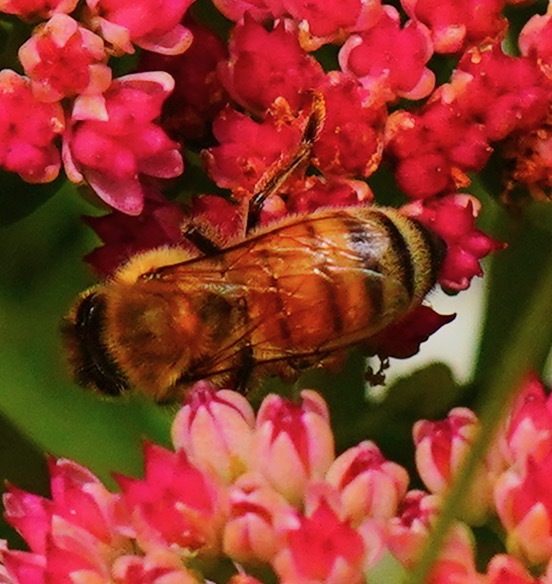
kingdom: Animalia
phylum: Arthropoda
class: Insecta
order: Hymenoptera
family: Apidae
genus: Apis
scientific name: Apis mellifera
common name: Honey bee
